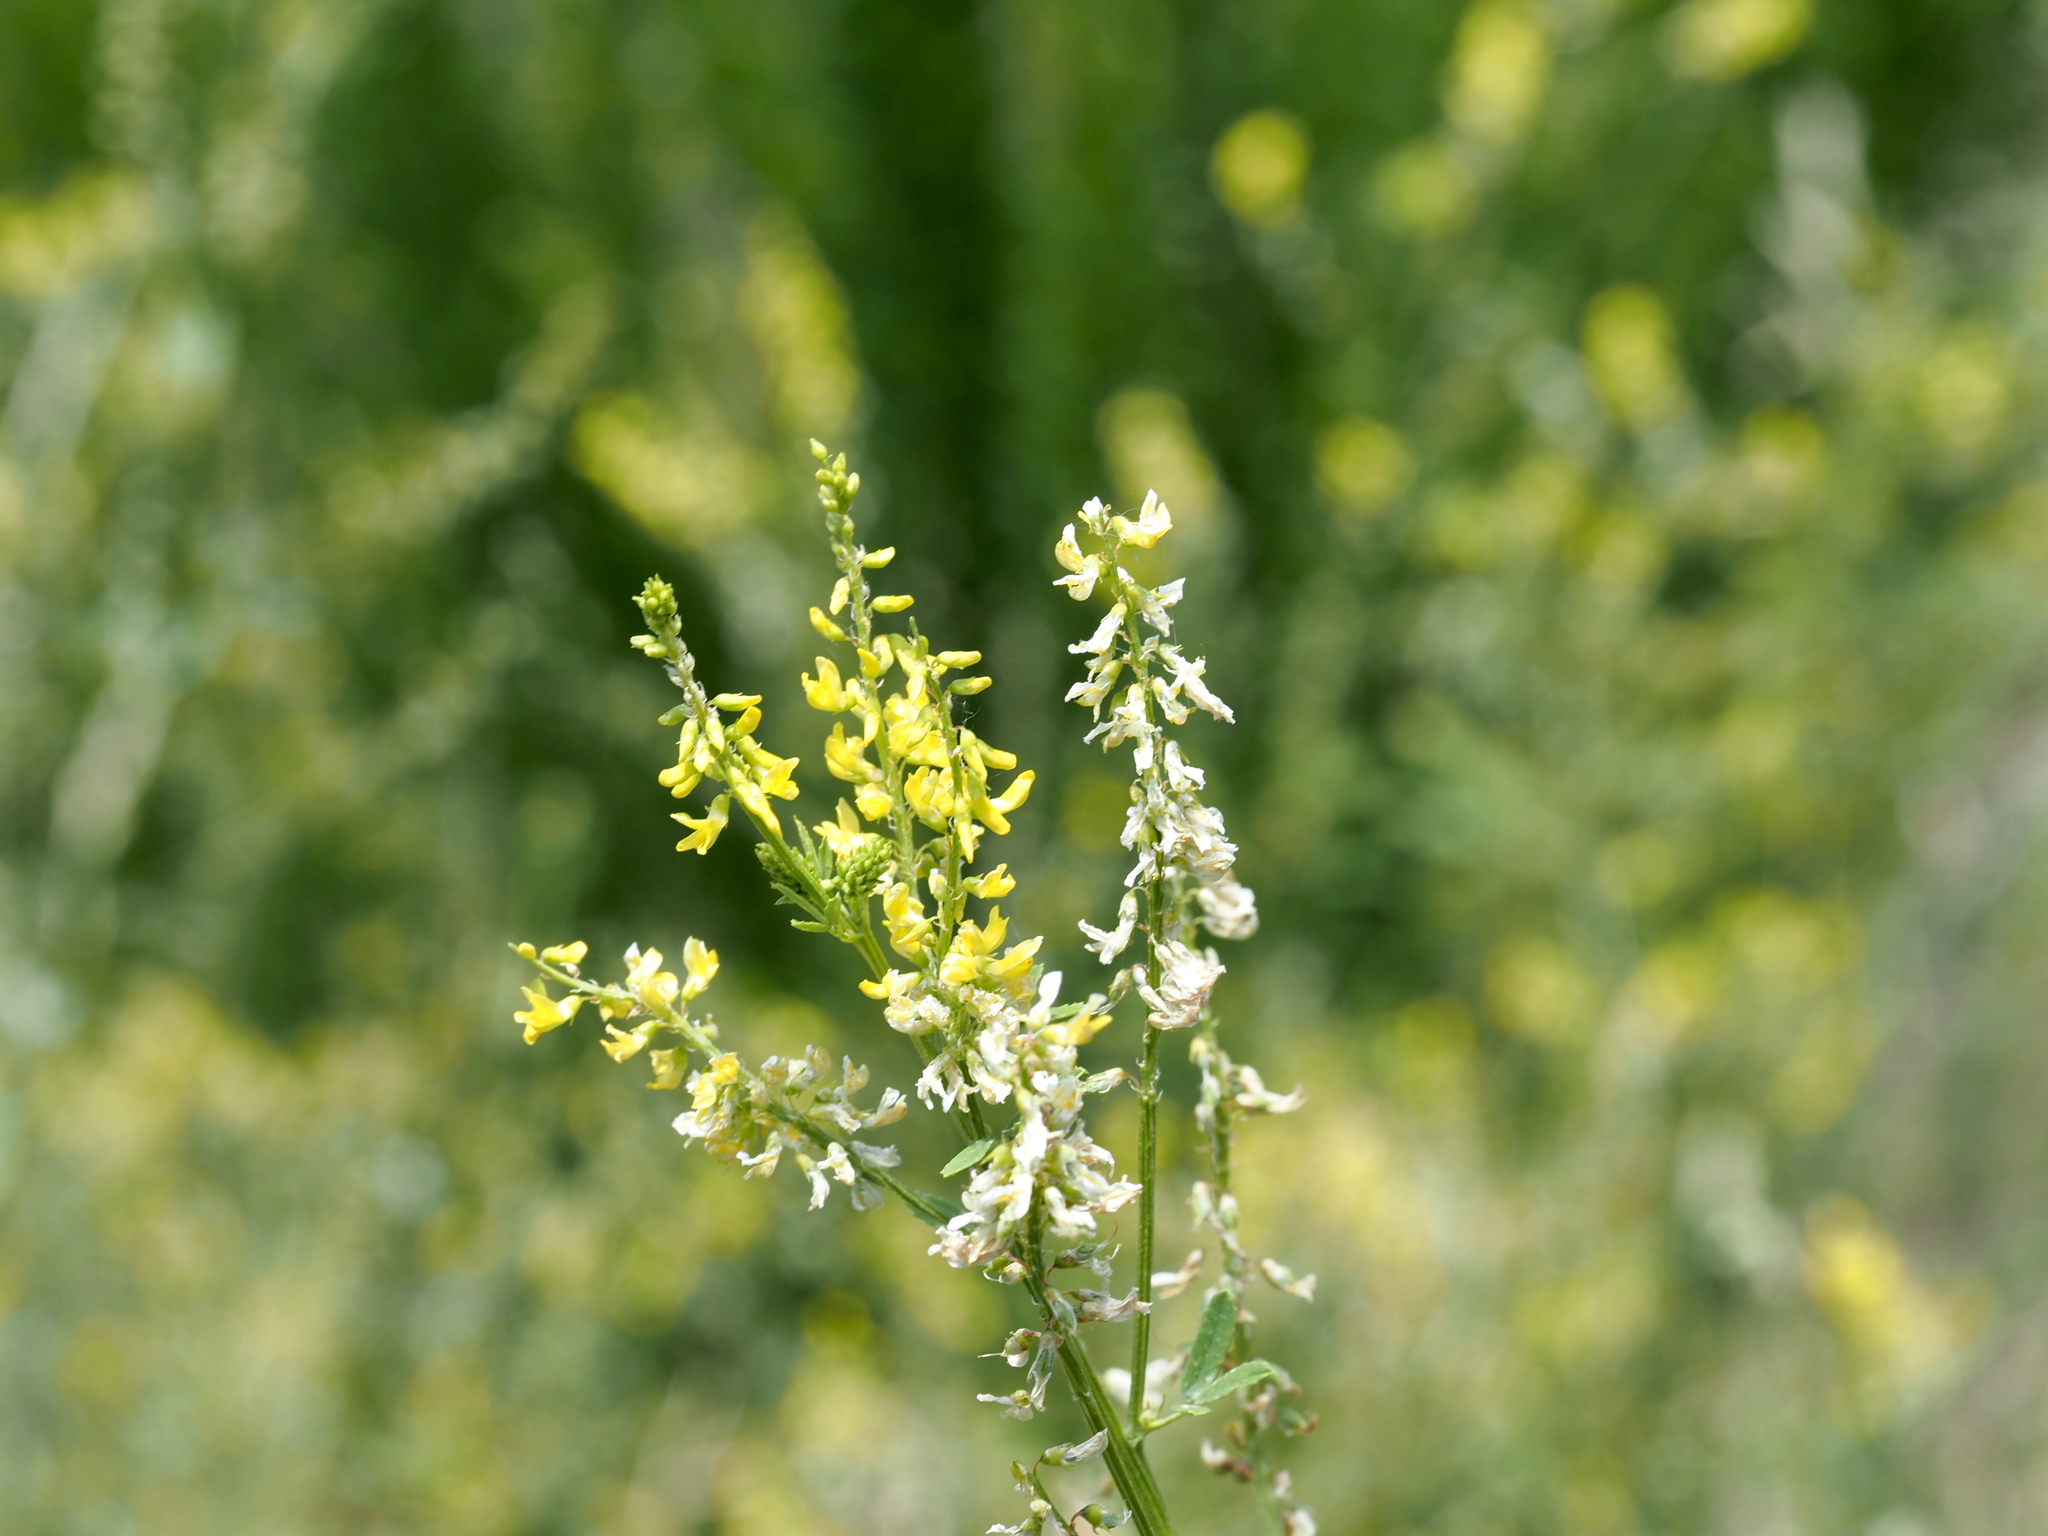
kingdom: Plantae
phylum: Tracheophyta
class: Magnoliopsida
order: Fabales
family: Fabaceae
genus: Melilotus
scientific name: Melilotus officinalis
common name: Sweetclover
